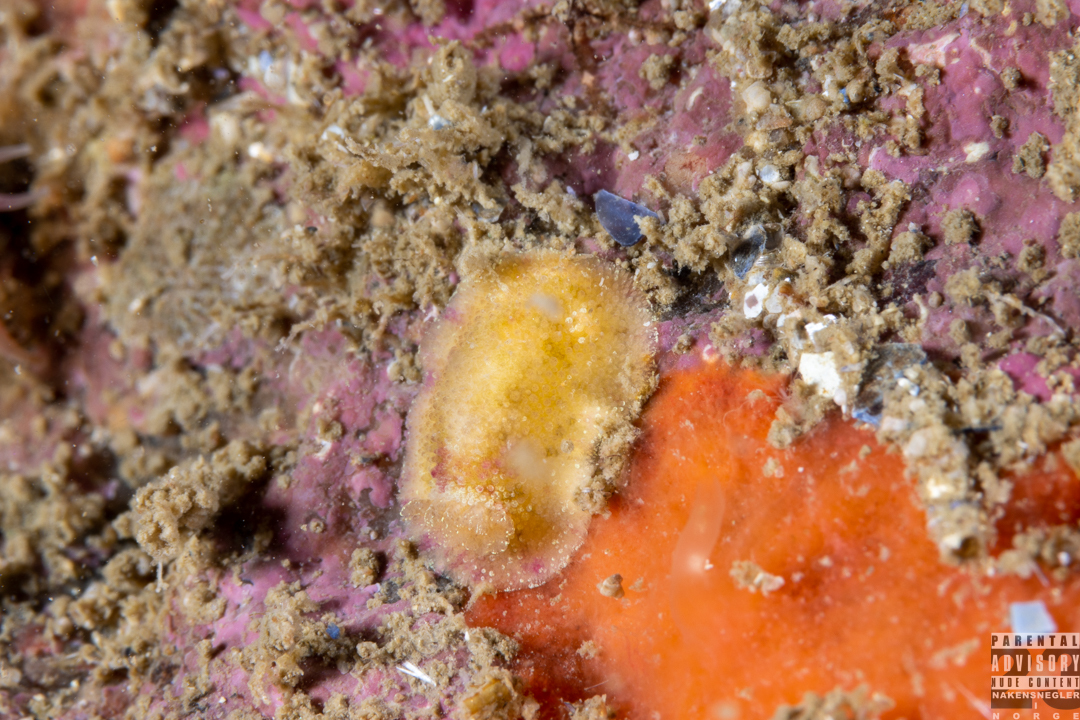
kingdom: Animalia
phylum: Mollusca
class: Gastropoda
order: Nudibranchia
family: Dorididae
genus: Doris
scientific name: Doris pseudoargus
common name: Sea lemon
